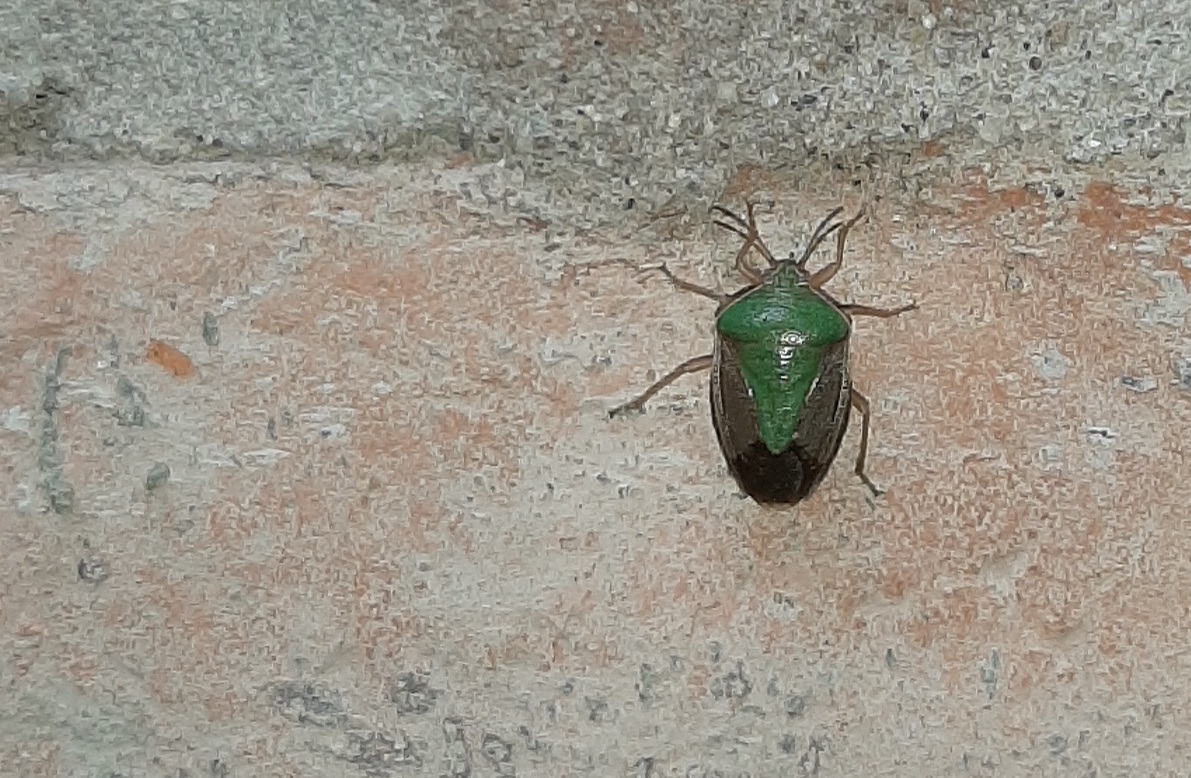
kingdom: Animalia
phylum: Arthropoda
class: Insecta
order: Hemiptera
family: Pentatomidae
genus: Edessa
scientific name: Edessa meditabunda
